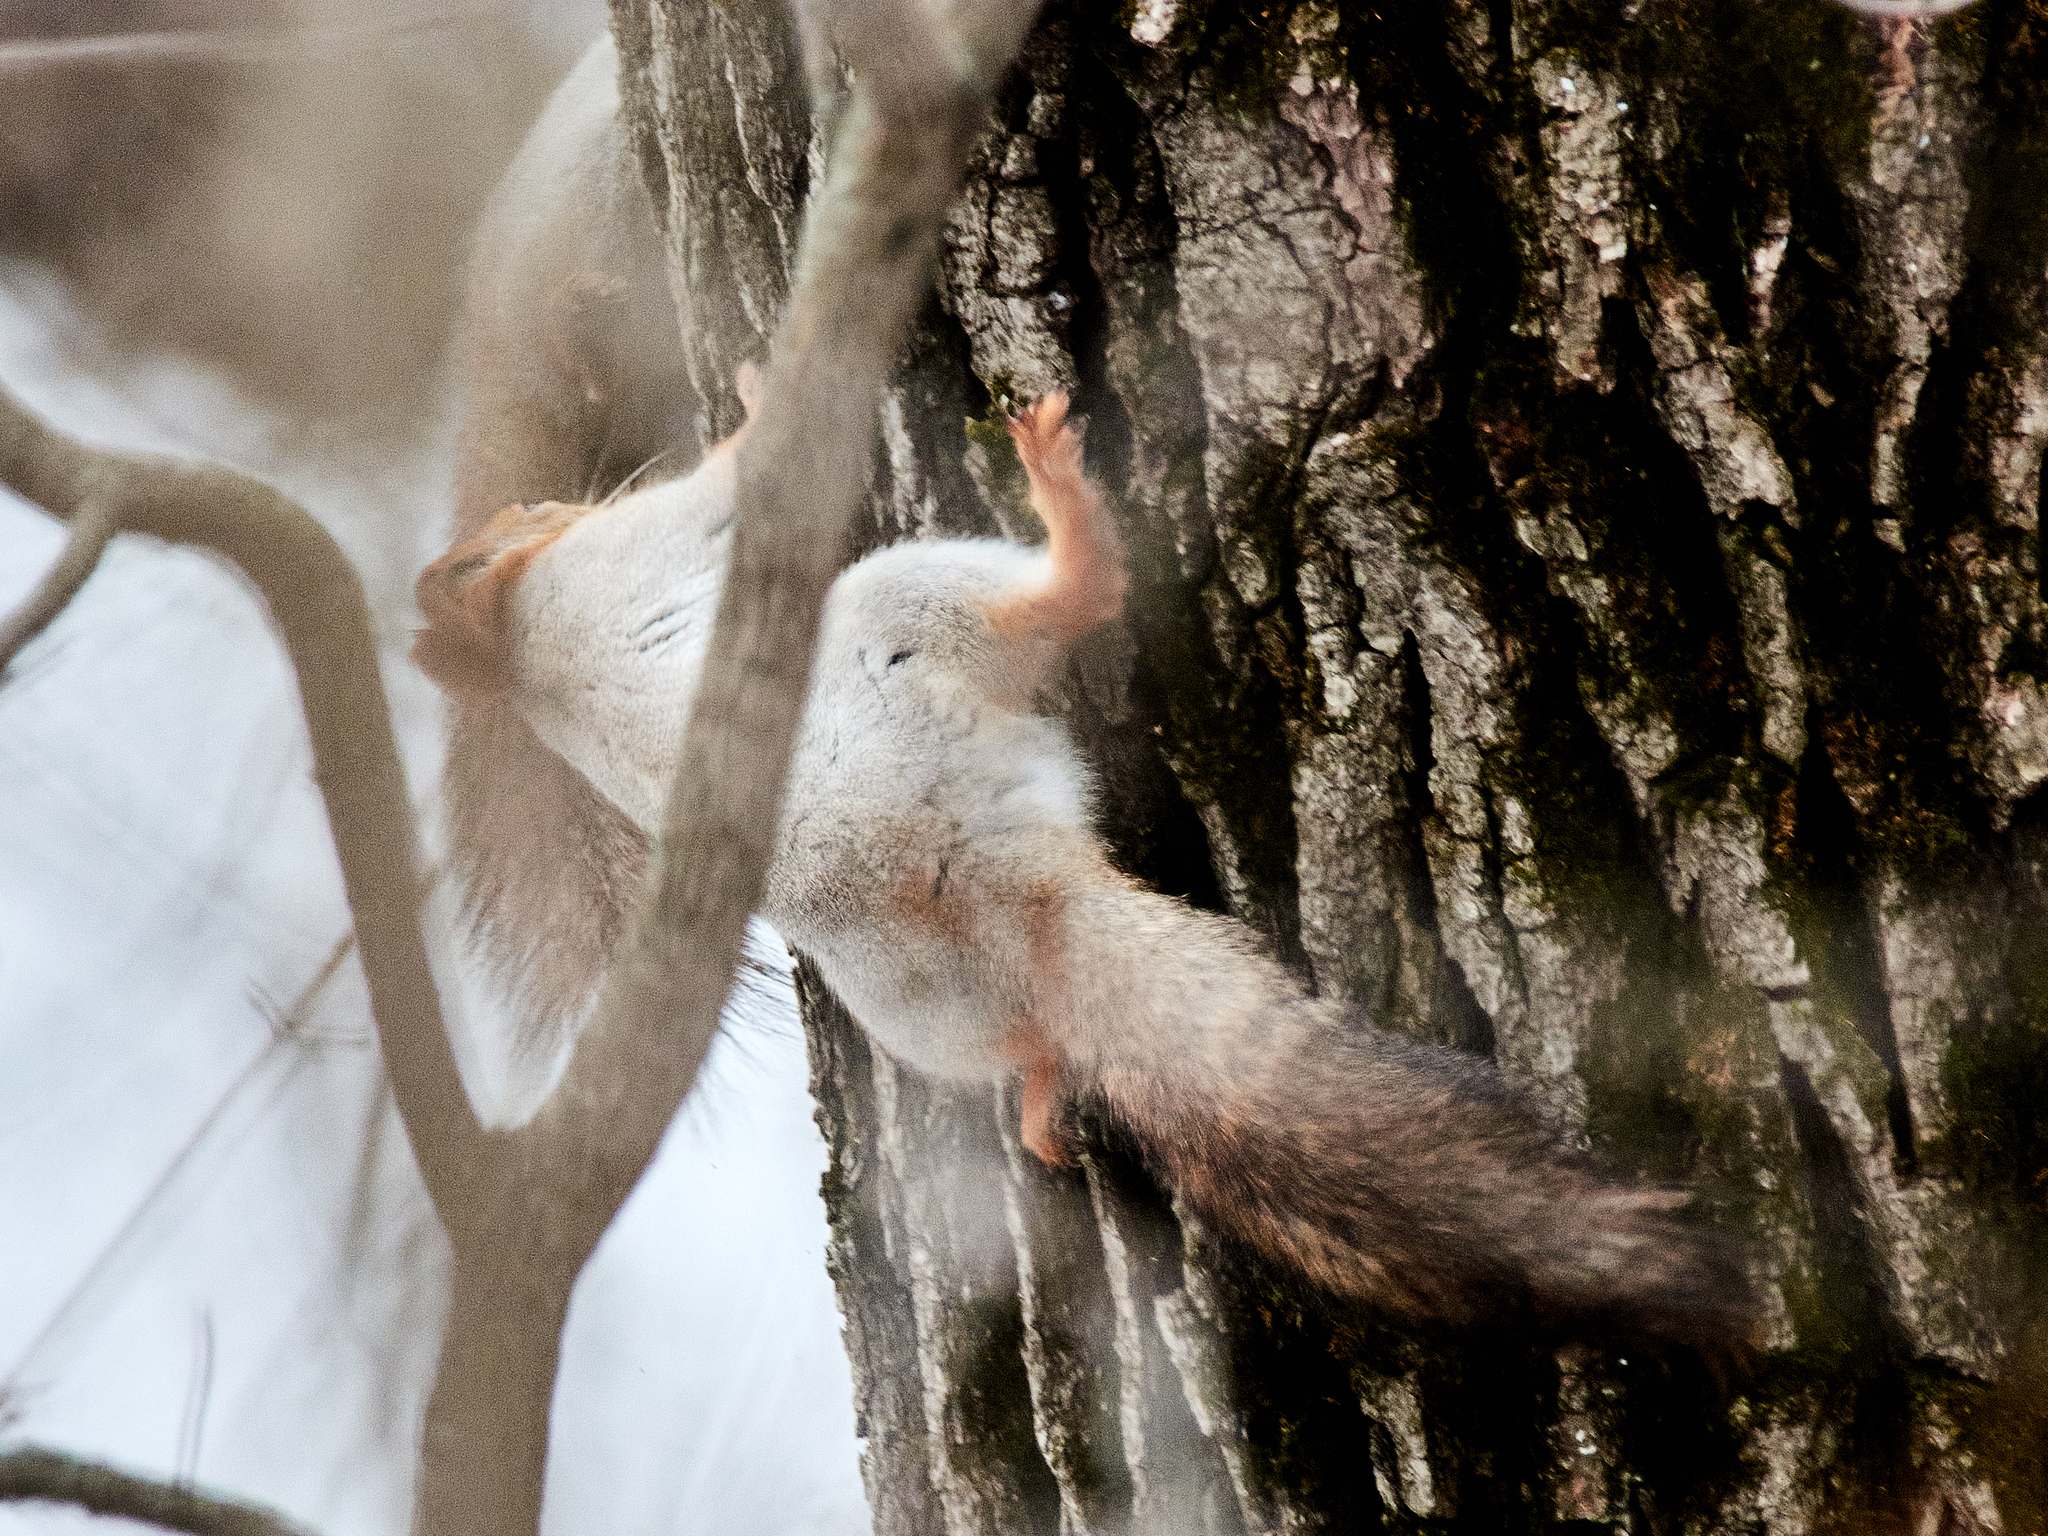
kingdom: Animalia
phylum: Chordata
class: Mammalia
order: Rodentia
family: Sciuridae
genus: Sciurus
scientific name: Sciurus vulgaris
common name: Eurasian red squirrel
